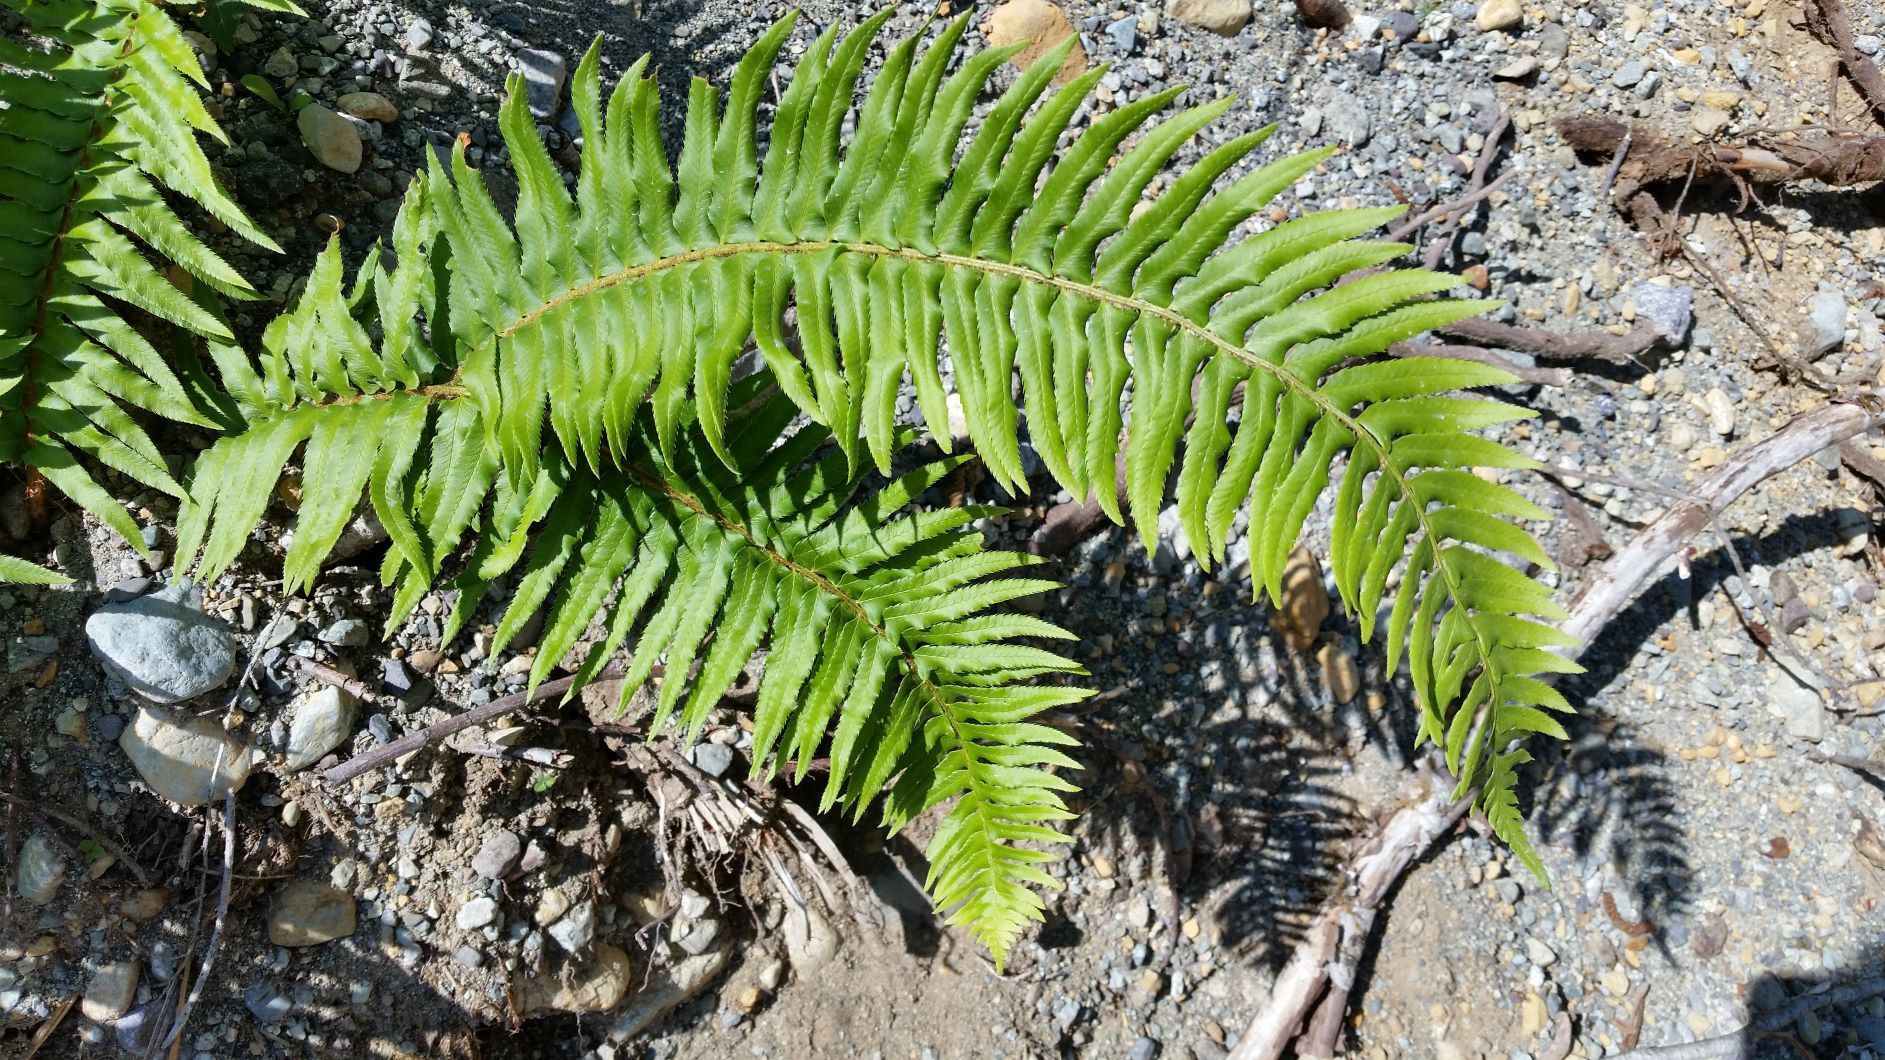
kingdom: Plantae
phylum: Tracheophyta
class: Polypodiopsida
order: Polypodiales
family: Dryopteridaceae
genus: Polystichum
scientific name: Polystichum munitum
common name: Western sword-fern
